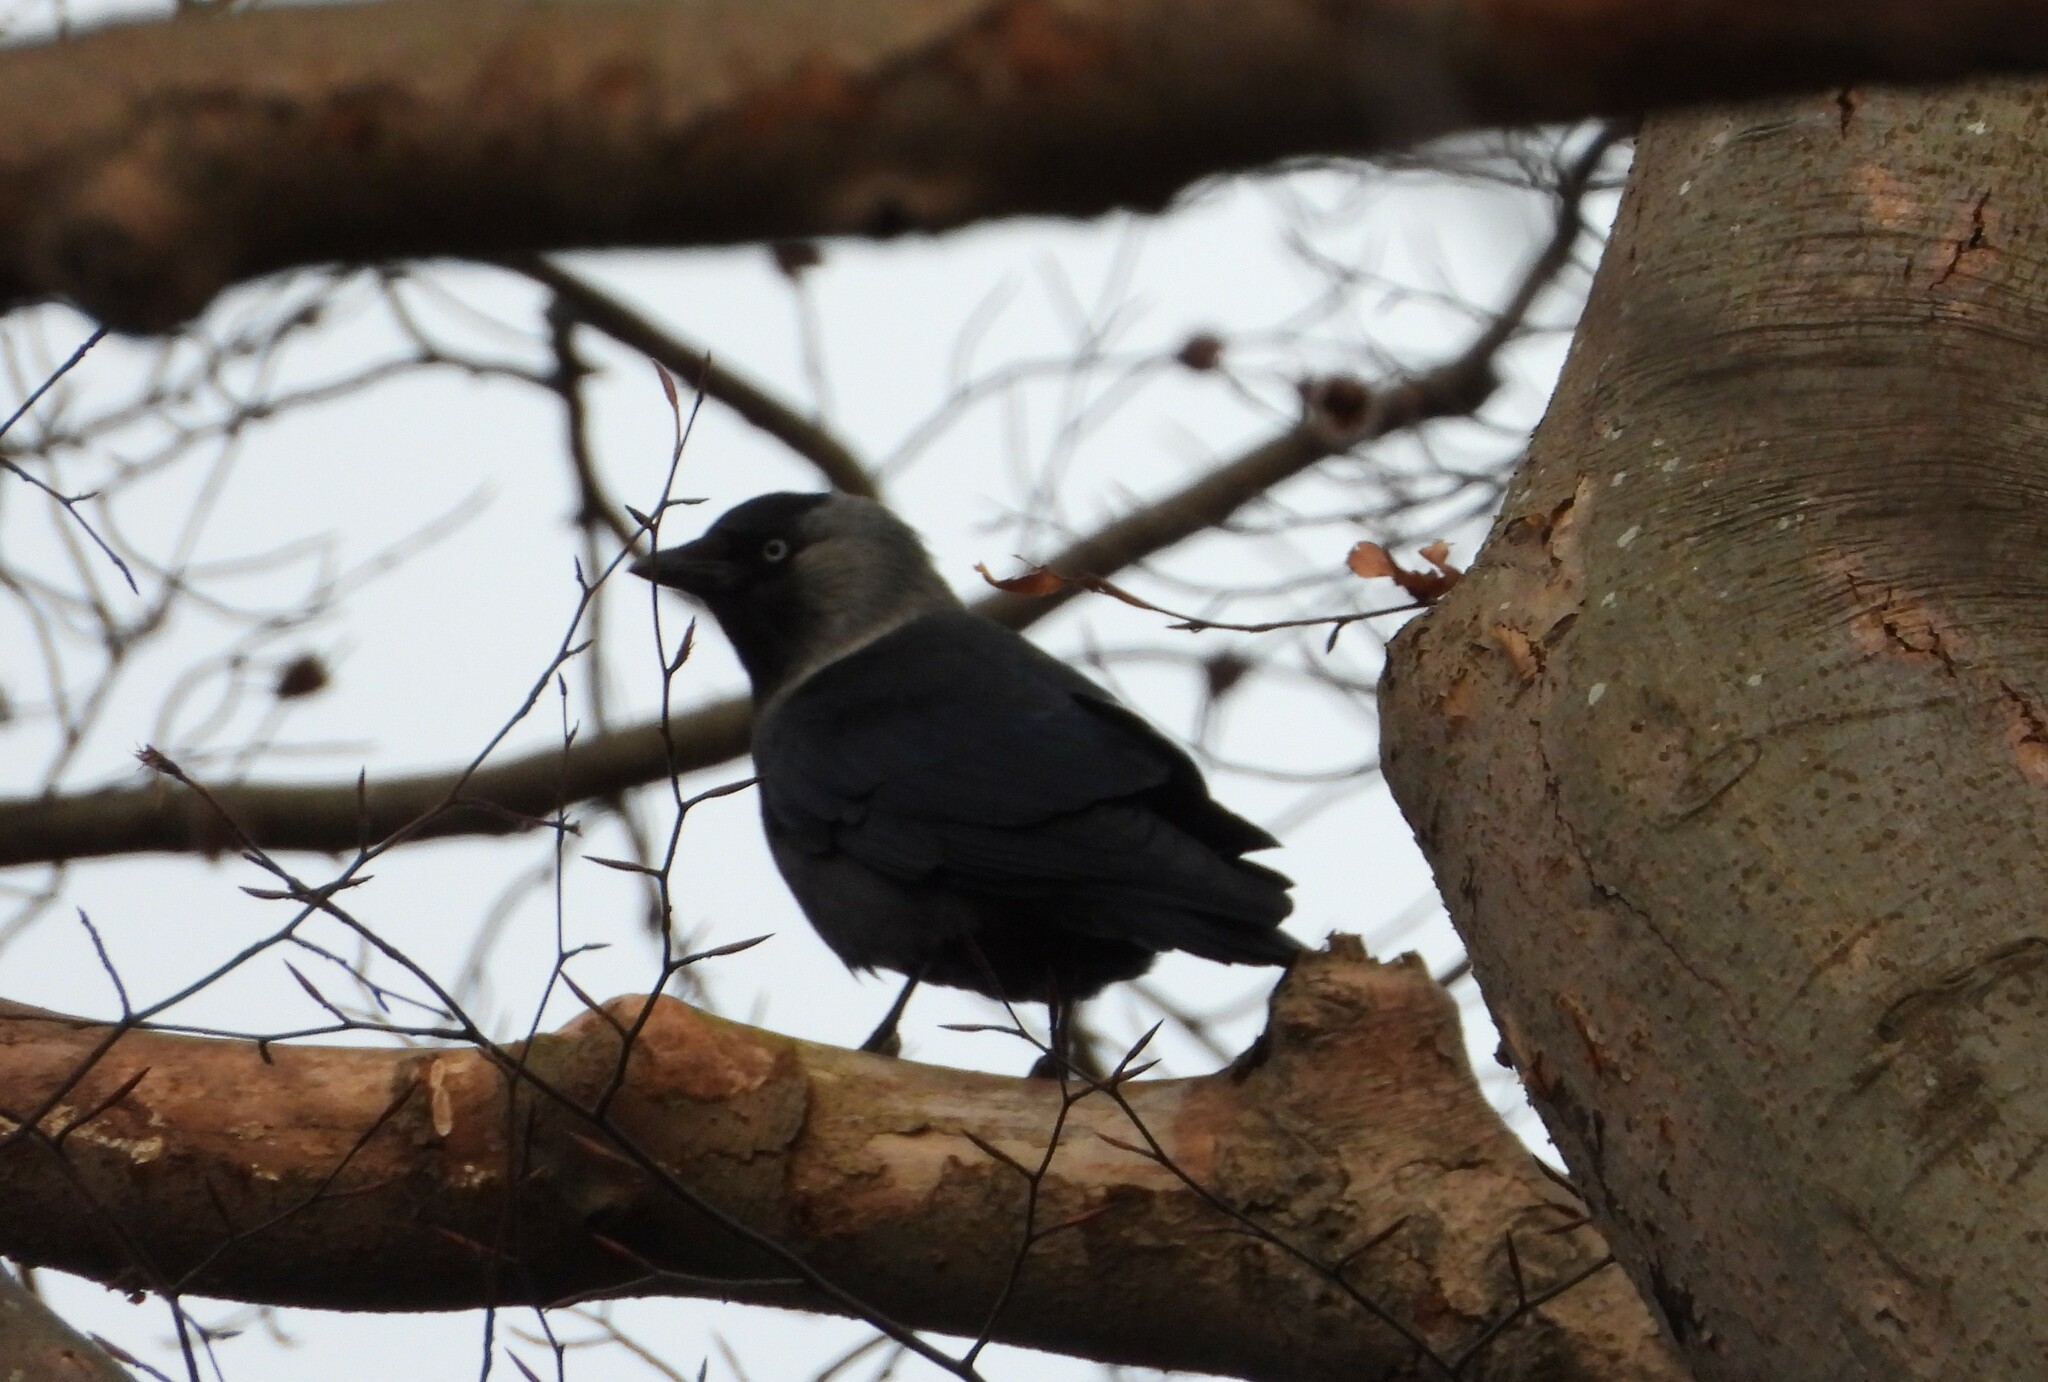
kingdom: Animalia
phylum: Chordata
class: Aves
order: Passeriformes
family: Corvidae
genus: Coloeus
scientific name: Coloeus monedula
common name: Western jackdaw
